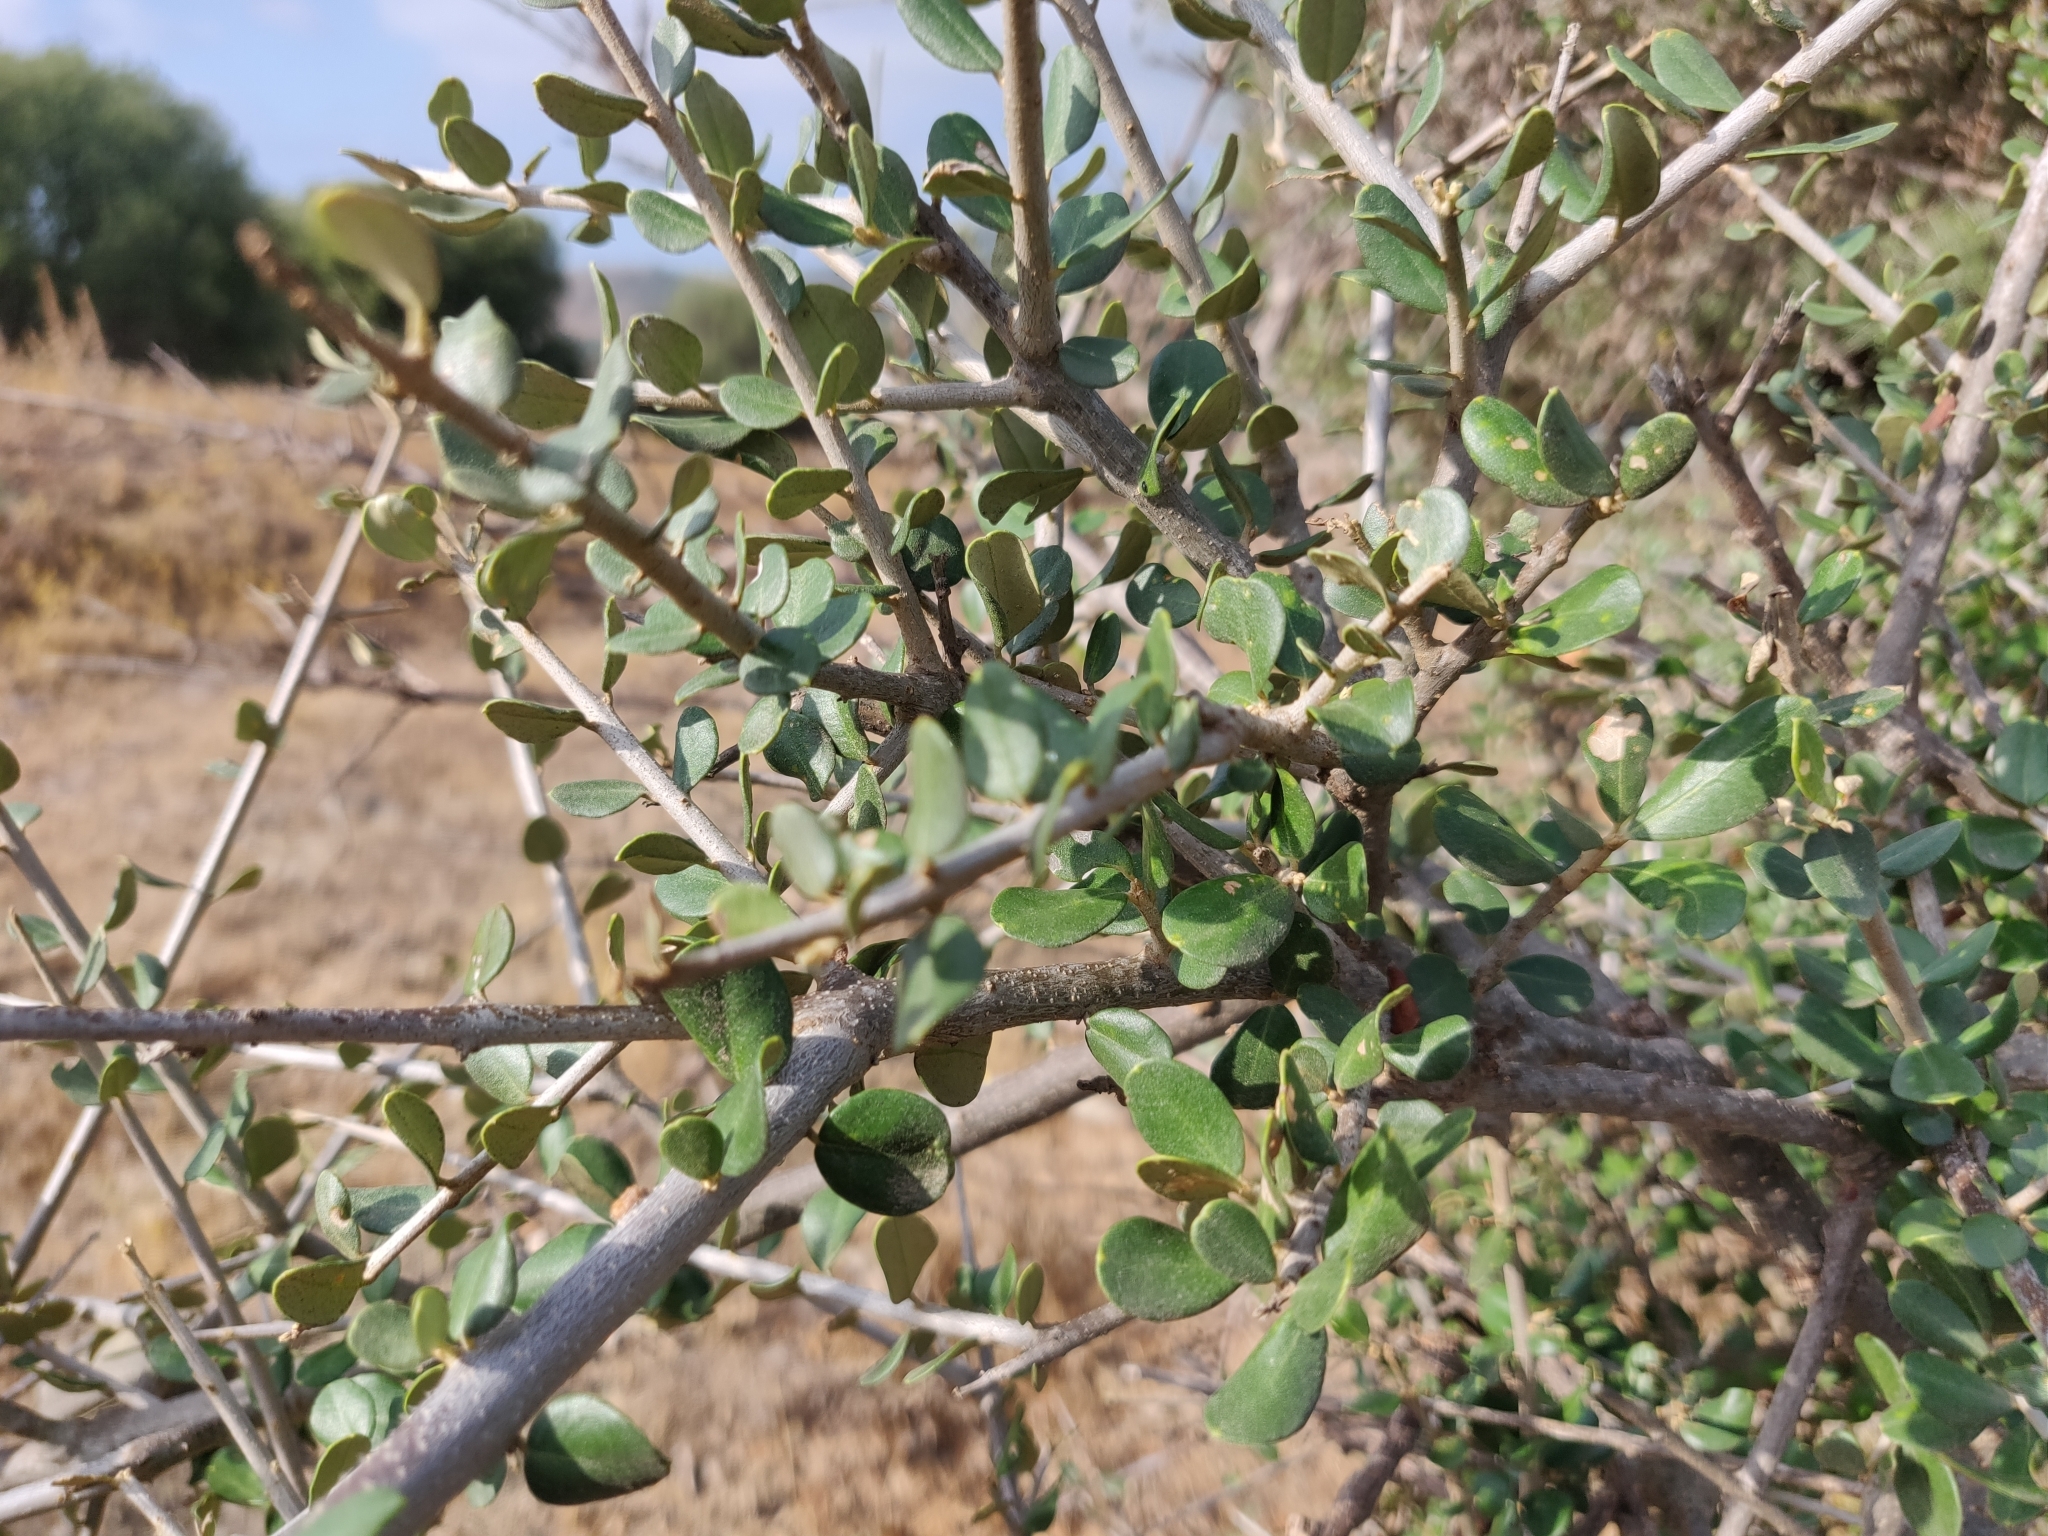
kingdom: Plantae
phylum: Tracheophyta
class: Magnoliopsida
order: Lamiales
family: Oleaceae
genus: Olea
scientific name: Olea europaea
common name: Olive
